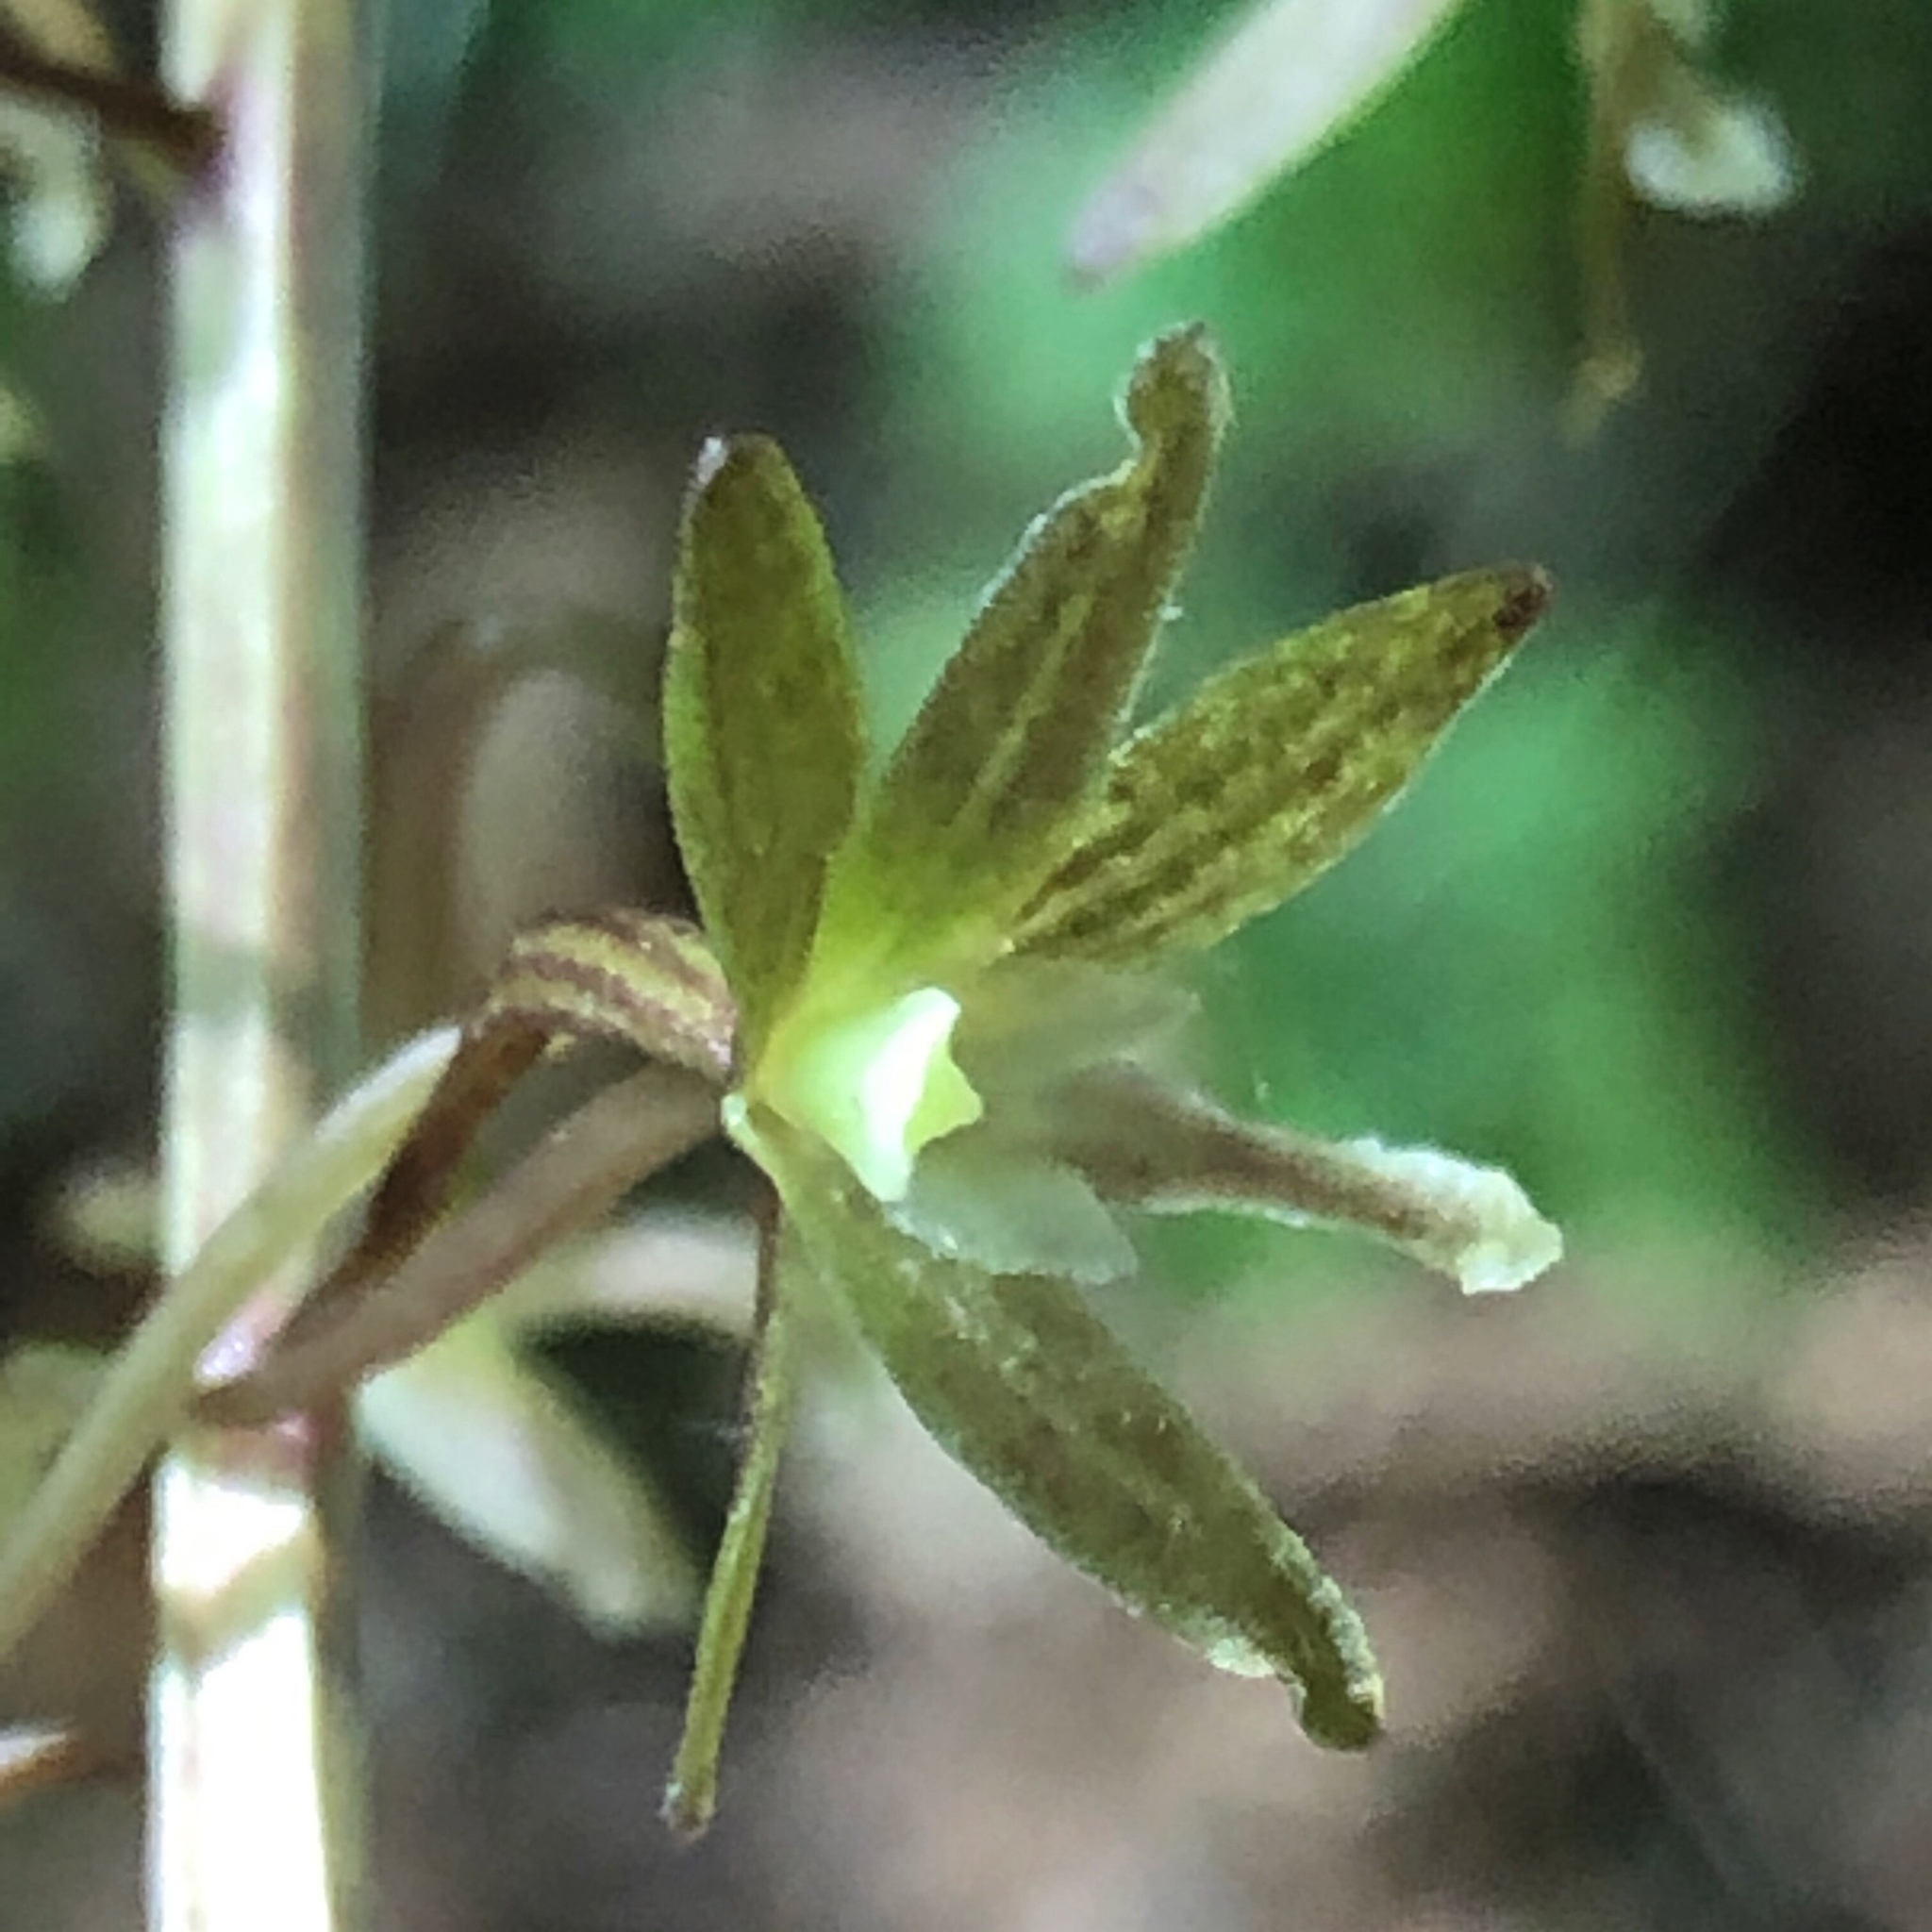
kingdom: Plantae
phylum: Tracheophyta
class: Liliopsida
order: Asparagales
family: Orchidaceae
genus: Tipularia
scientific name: Tipularia discolor
